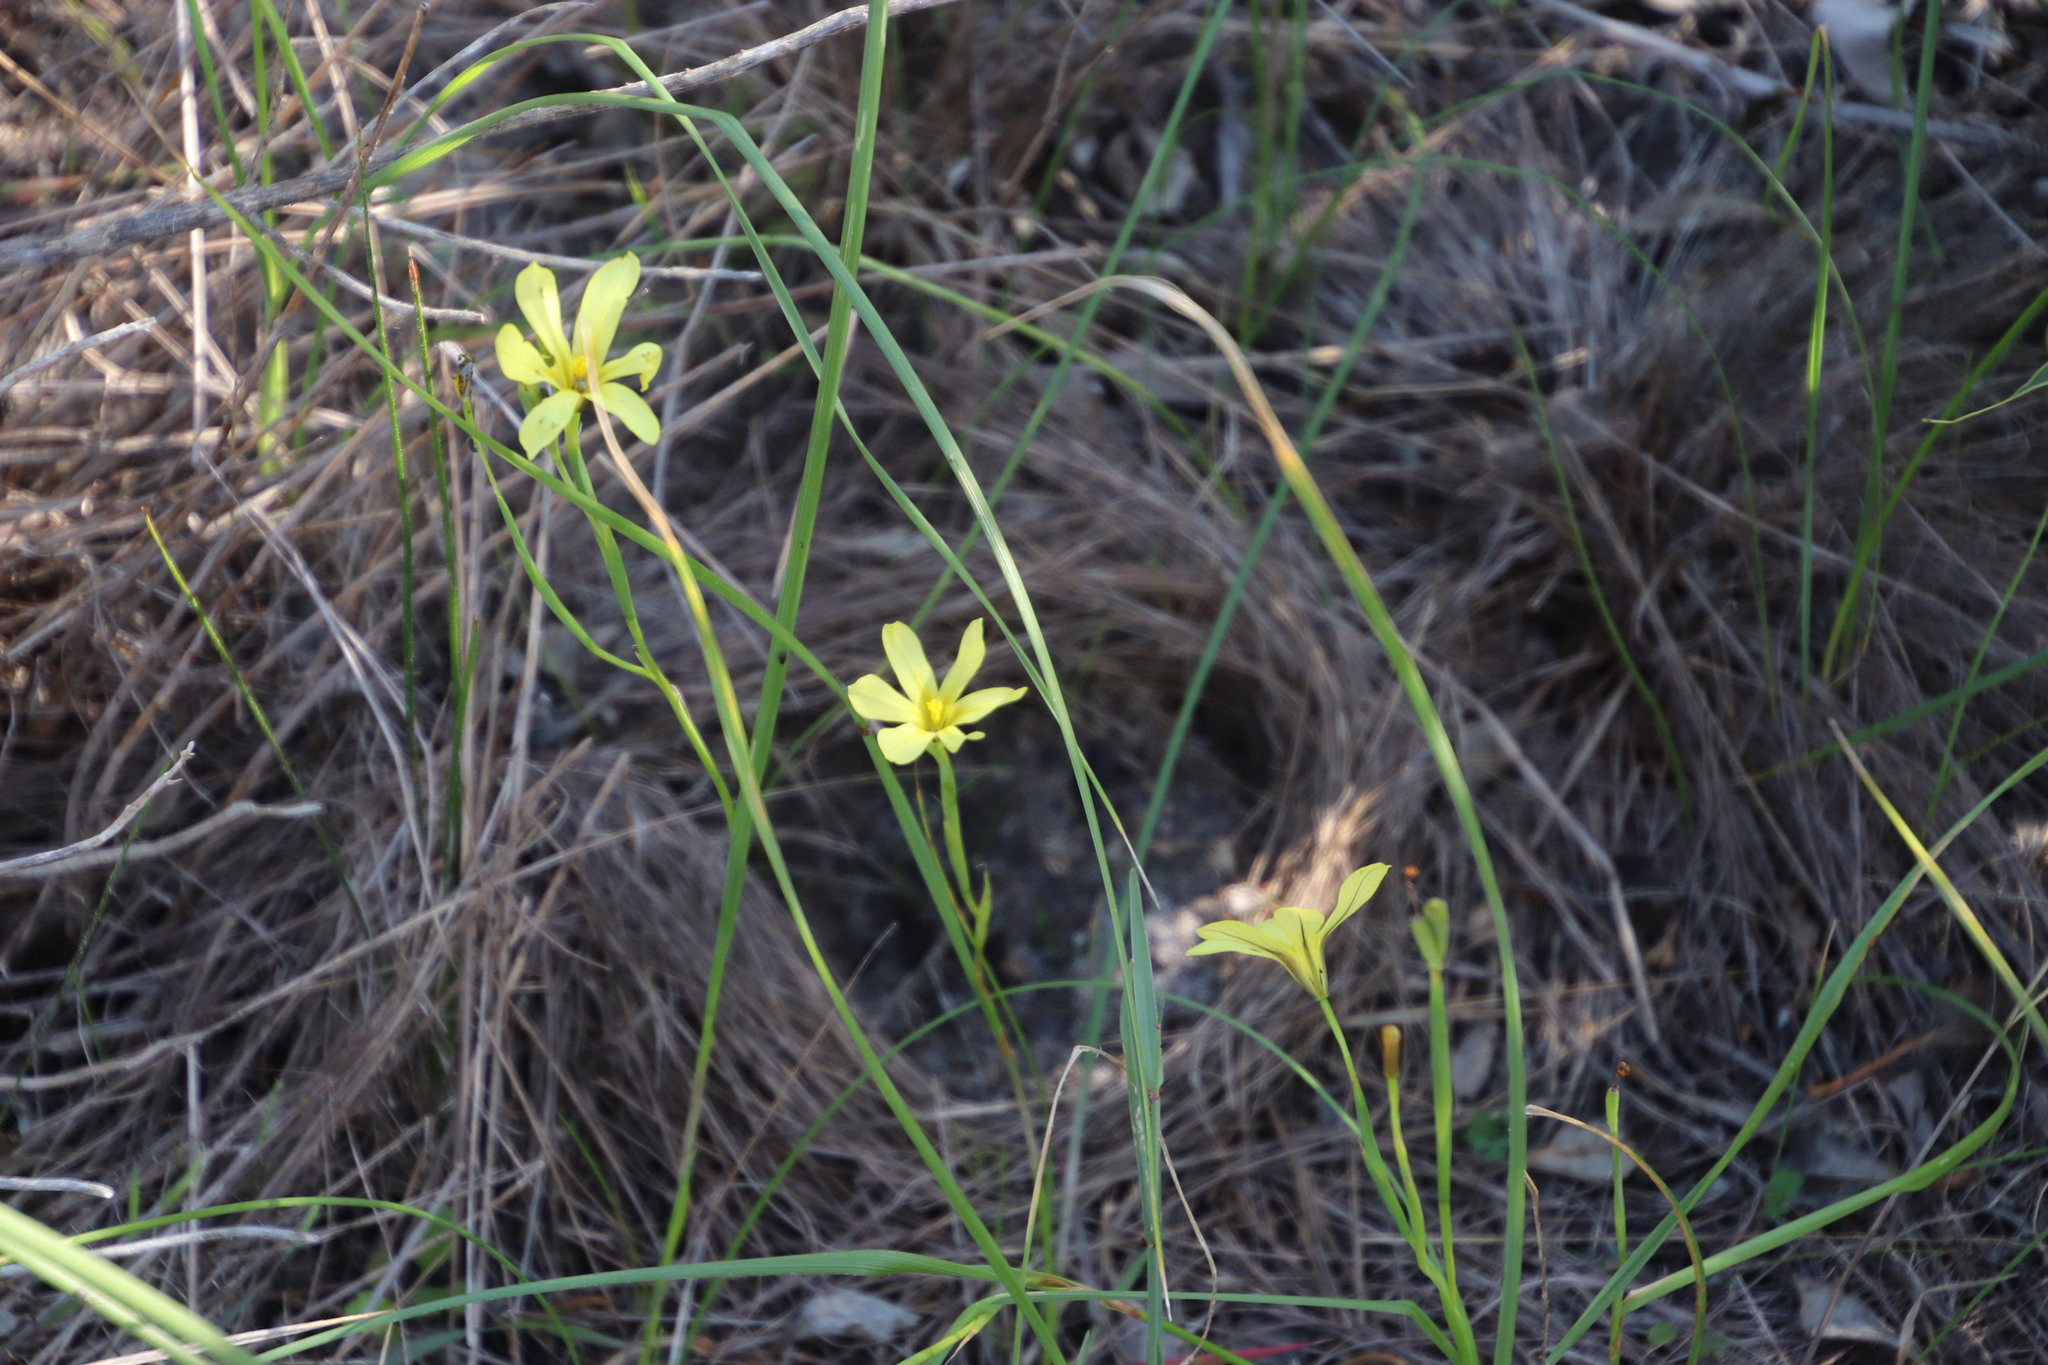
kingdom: Plantae
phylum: Tracheophyta
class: Liliopsida
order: Asparagales
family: Iridaceae
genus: Moraea
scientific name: Moraea collina
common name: Cape-tulip
